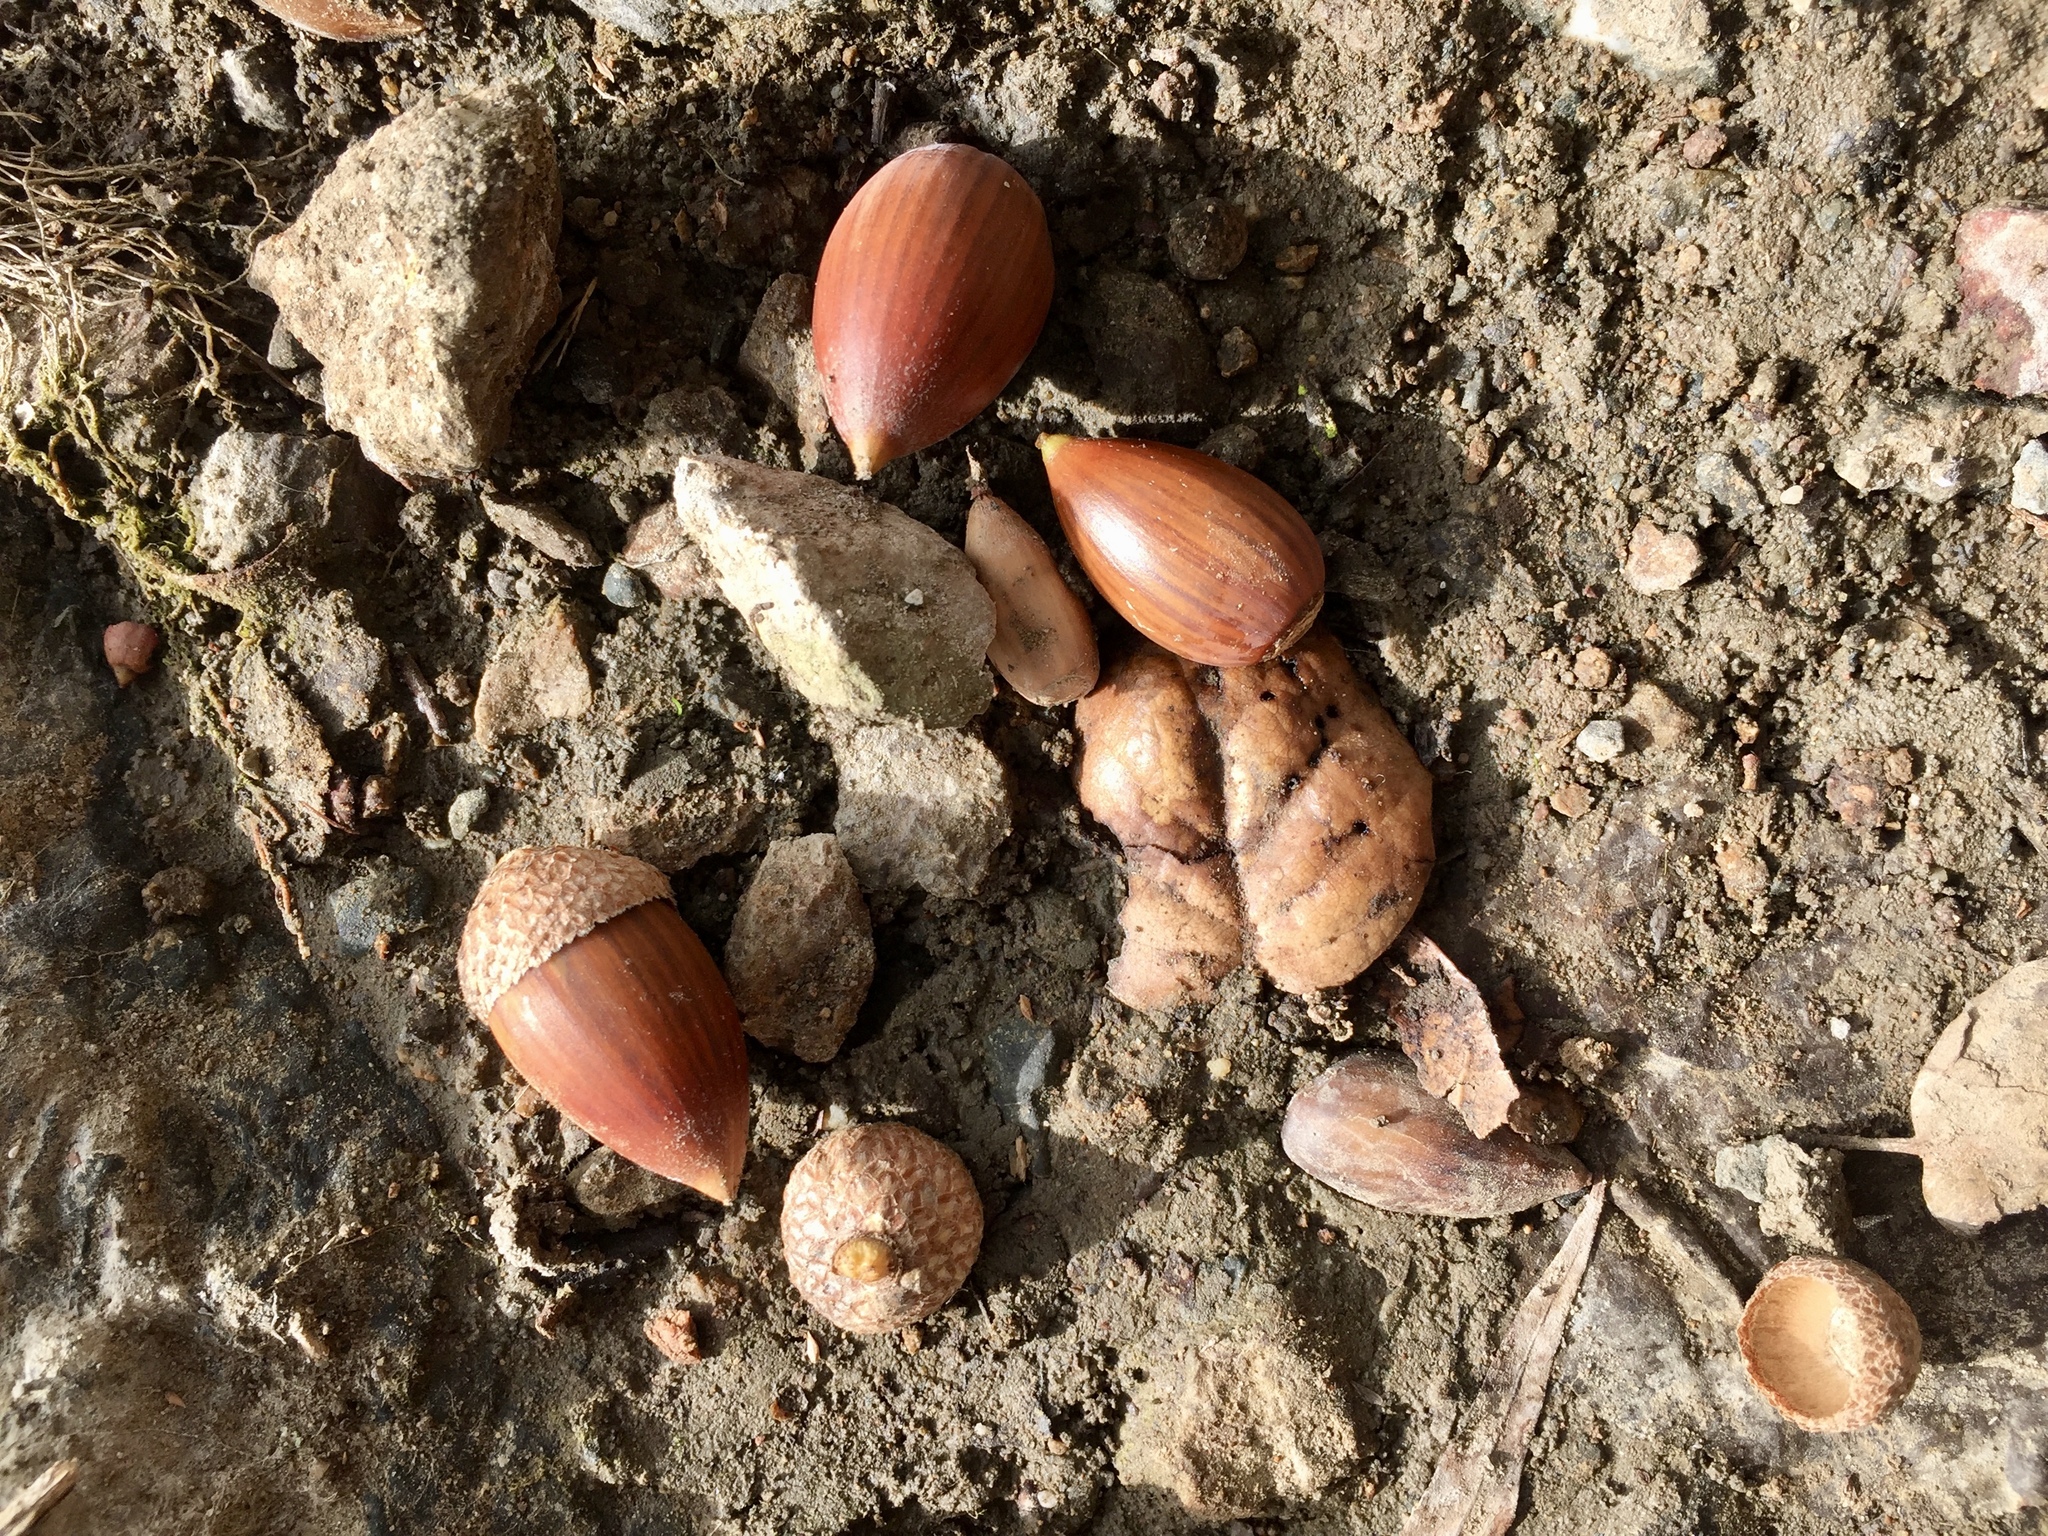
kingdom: Plantae
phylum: Tracheophyta
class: Magnoliopsida
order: Fagales
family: Fagaceae
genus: Quercus
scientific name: Quercus agrifolia
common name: California live oak
